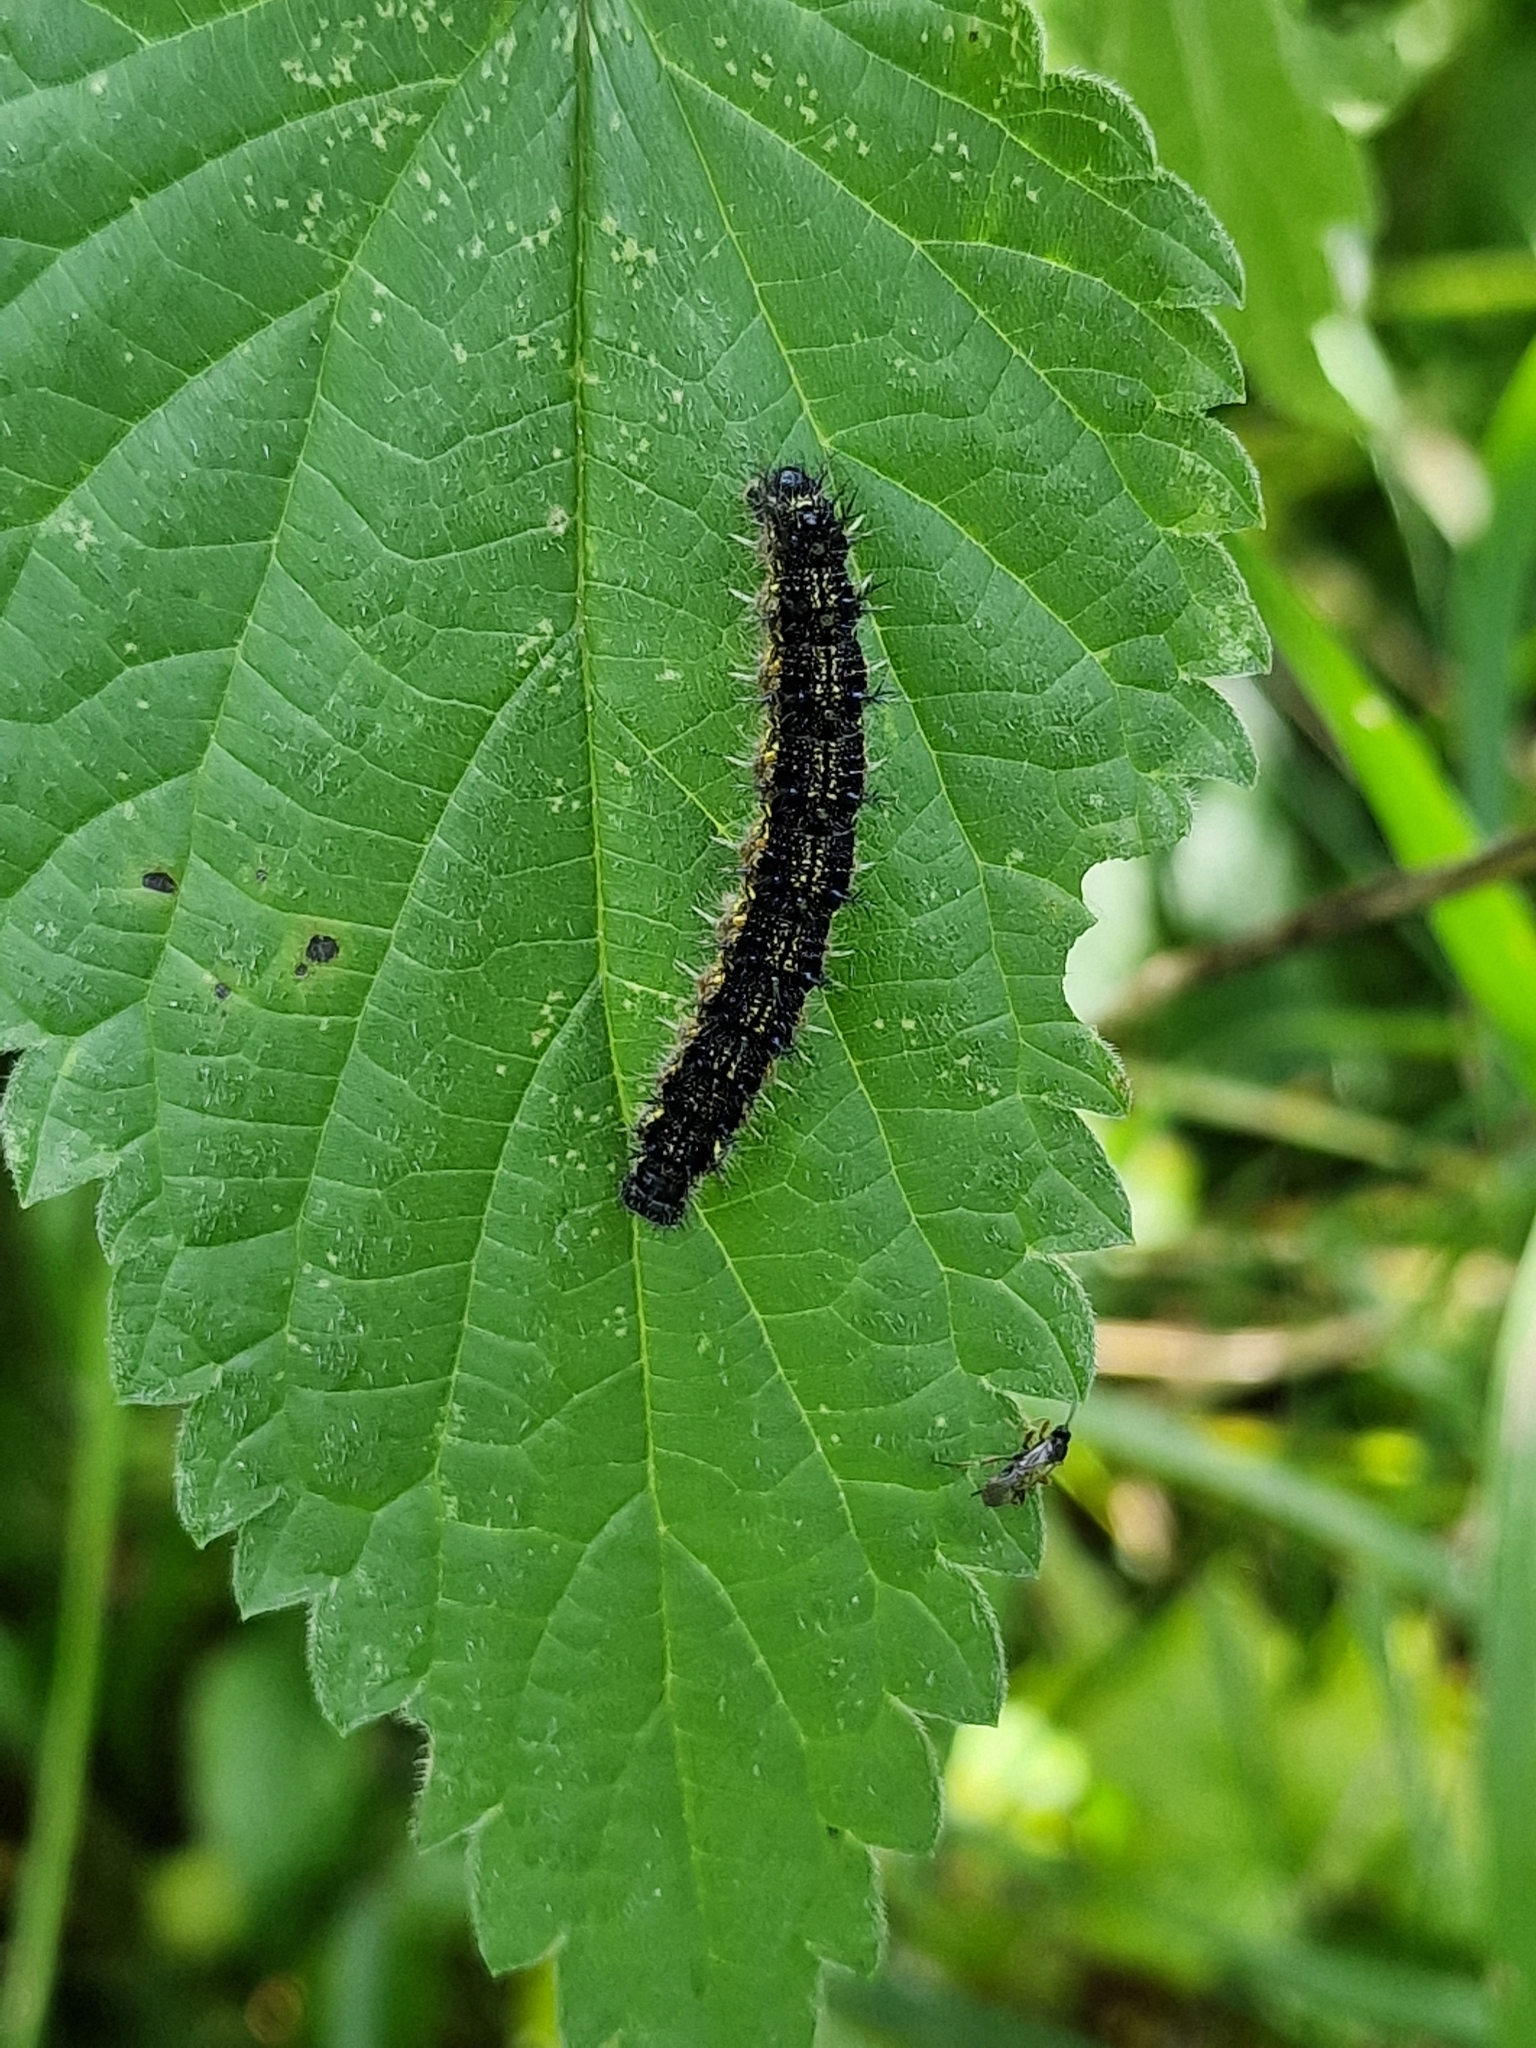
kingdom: Animalia
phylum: Arthropoda
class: Insecta
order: Lepidoptera
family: Nymphalidae
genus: Aglais
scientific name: Aglais urticae
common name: Small tortoiseshell
